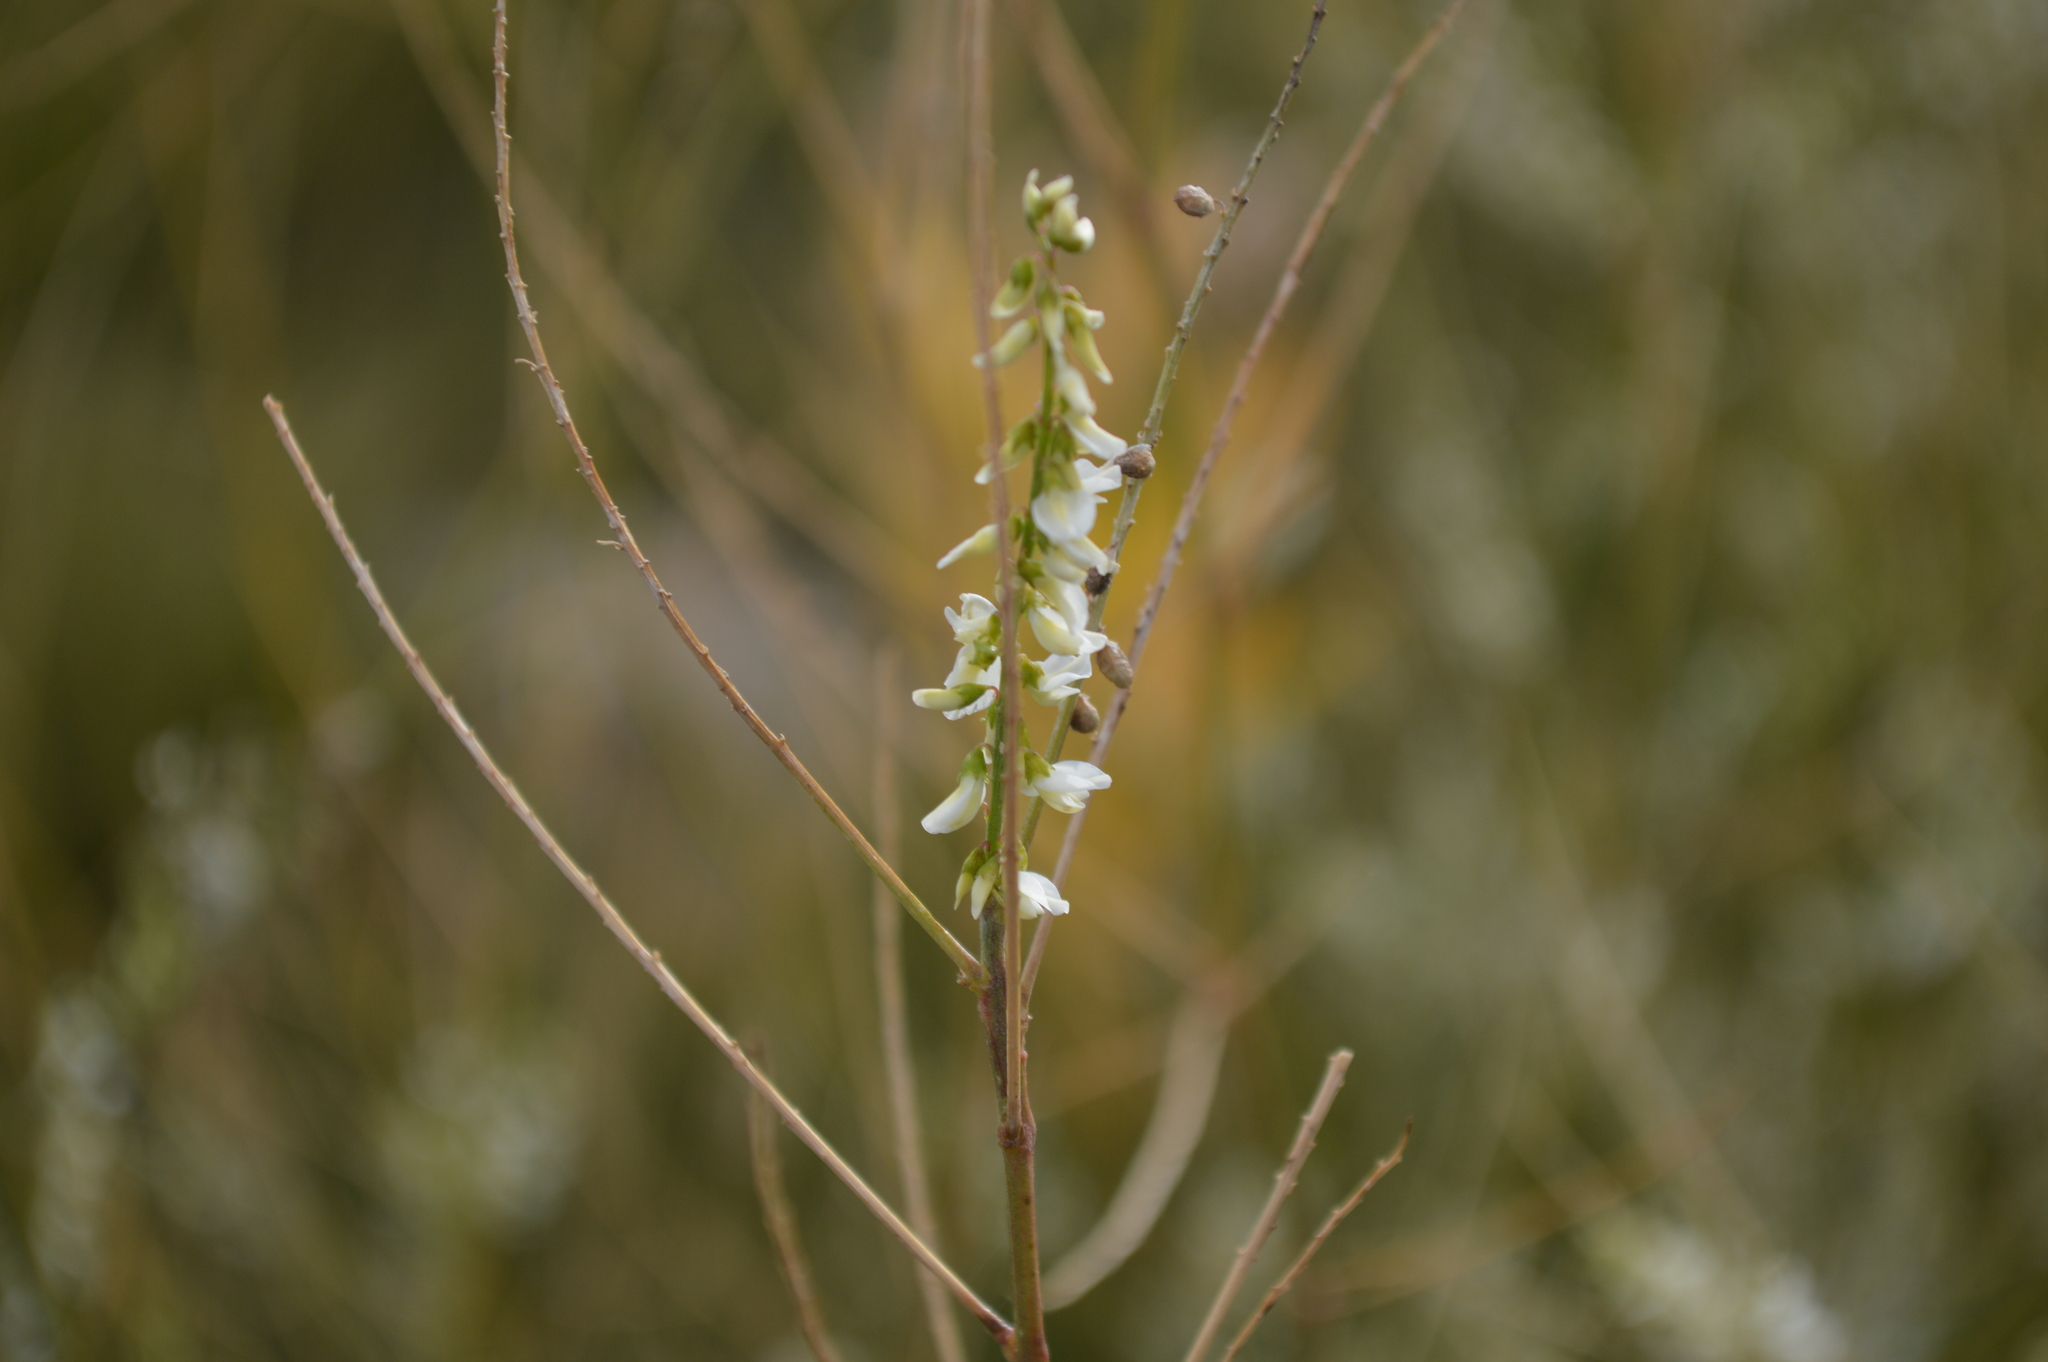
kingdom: Plantae
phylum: Tracheophyta
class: Magnoliopsida
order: Fabales
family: Fabaceae
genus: Melilotus
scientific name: Melilotus albus
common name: White melilot
